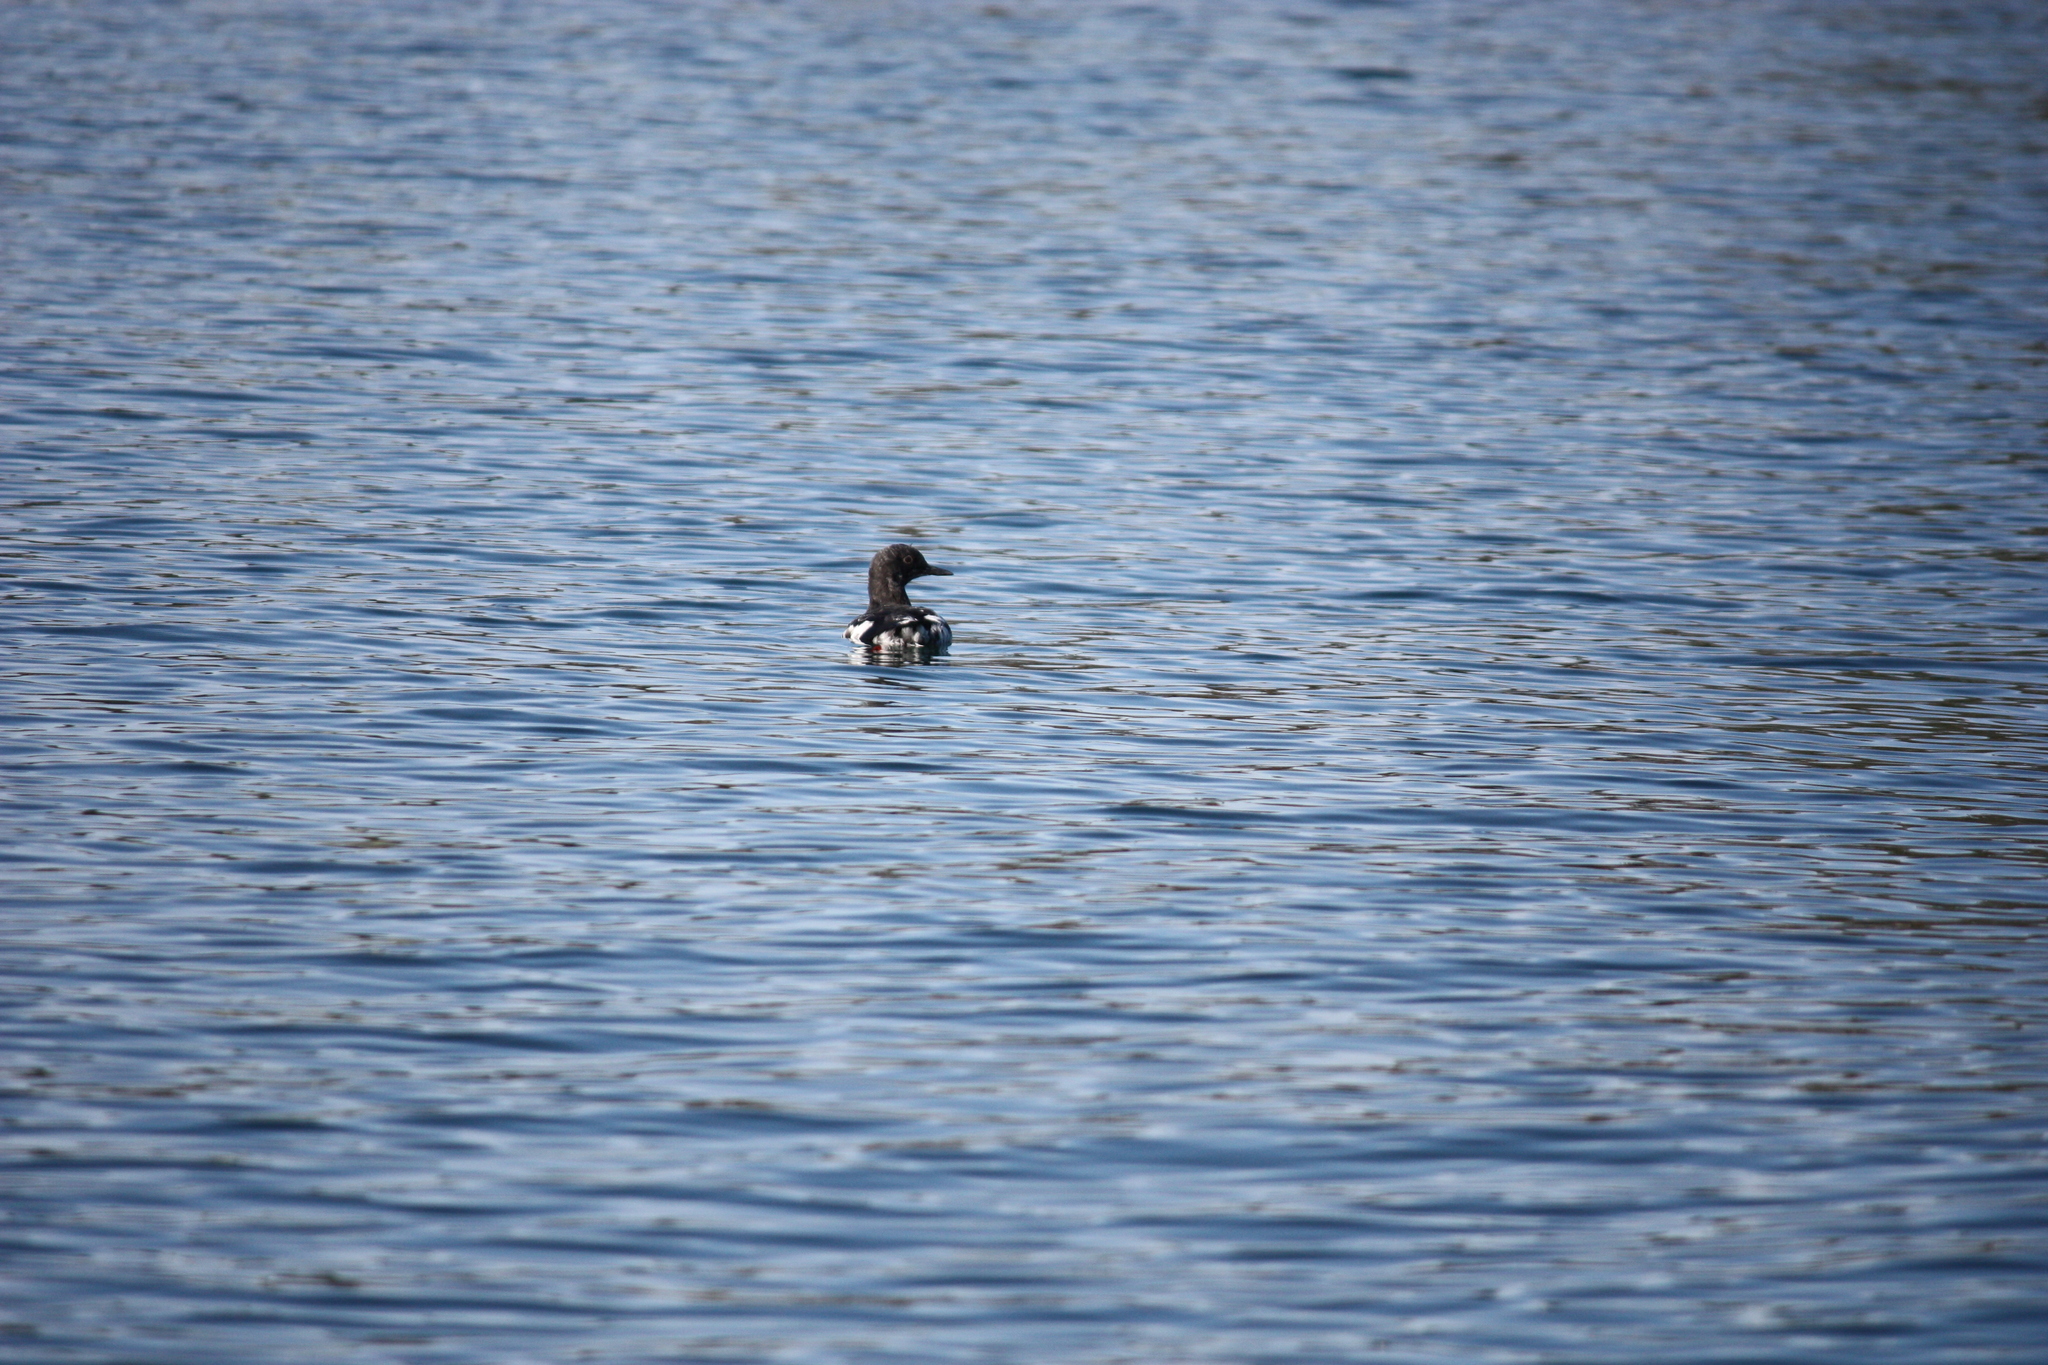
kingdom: Animalia
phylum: Chordata
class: Aves
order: Charadriiformes
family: Alcidae
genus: Cepphus
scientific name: Cepphus columba
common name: Pigeon guillemot
